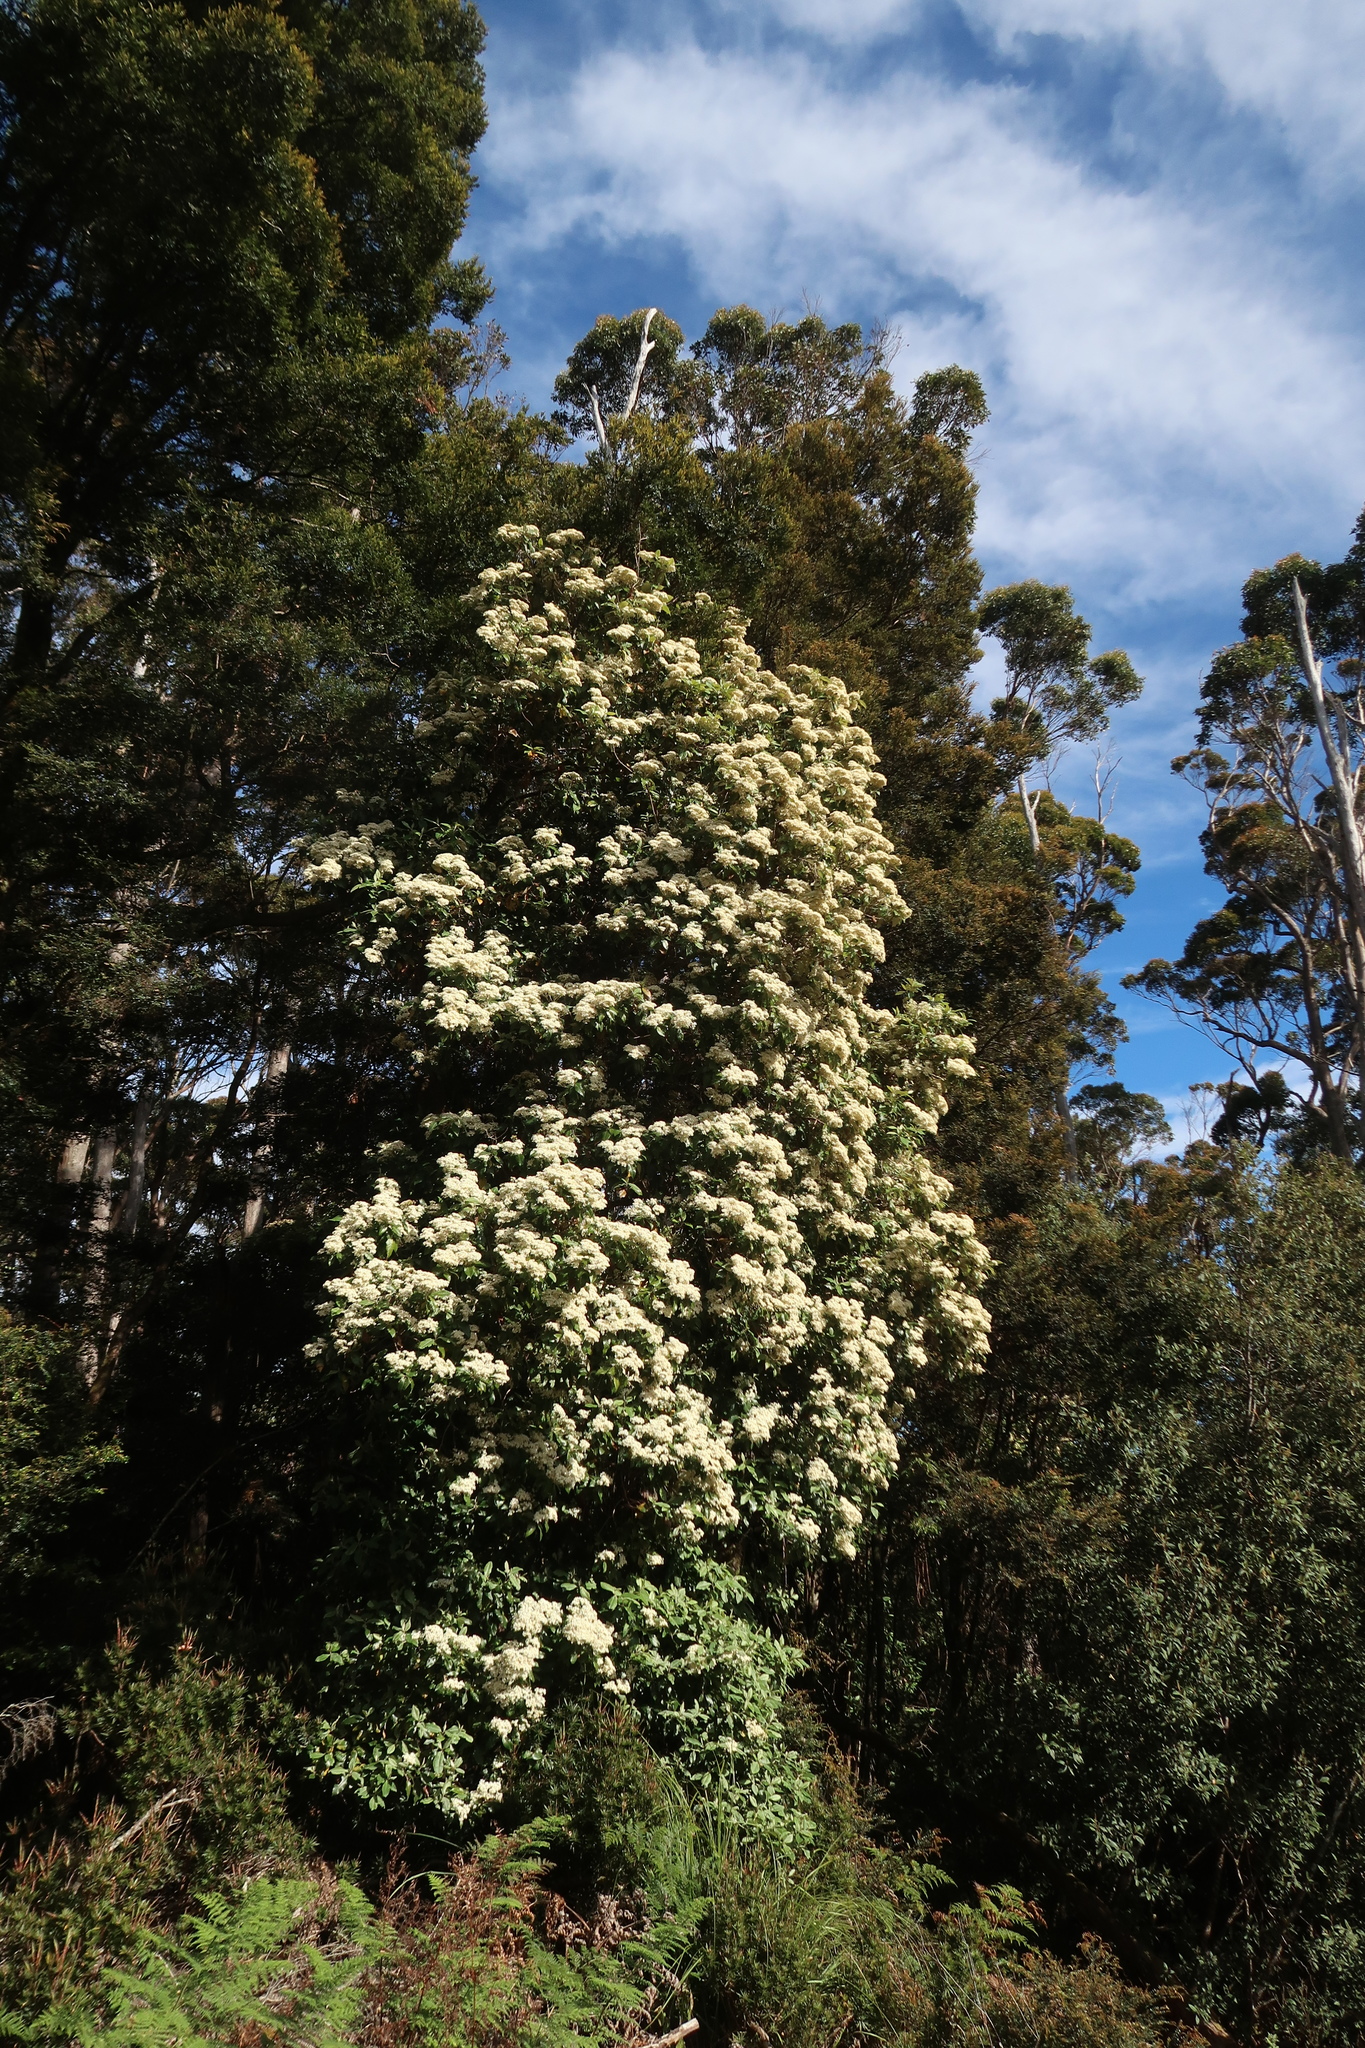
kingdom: Plantae
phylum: Tracheophyta
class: Magnoliopsida
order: Asterales
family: Asteraceae
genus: Olearia
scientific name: Olearia argophylla
